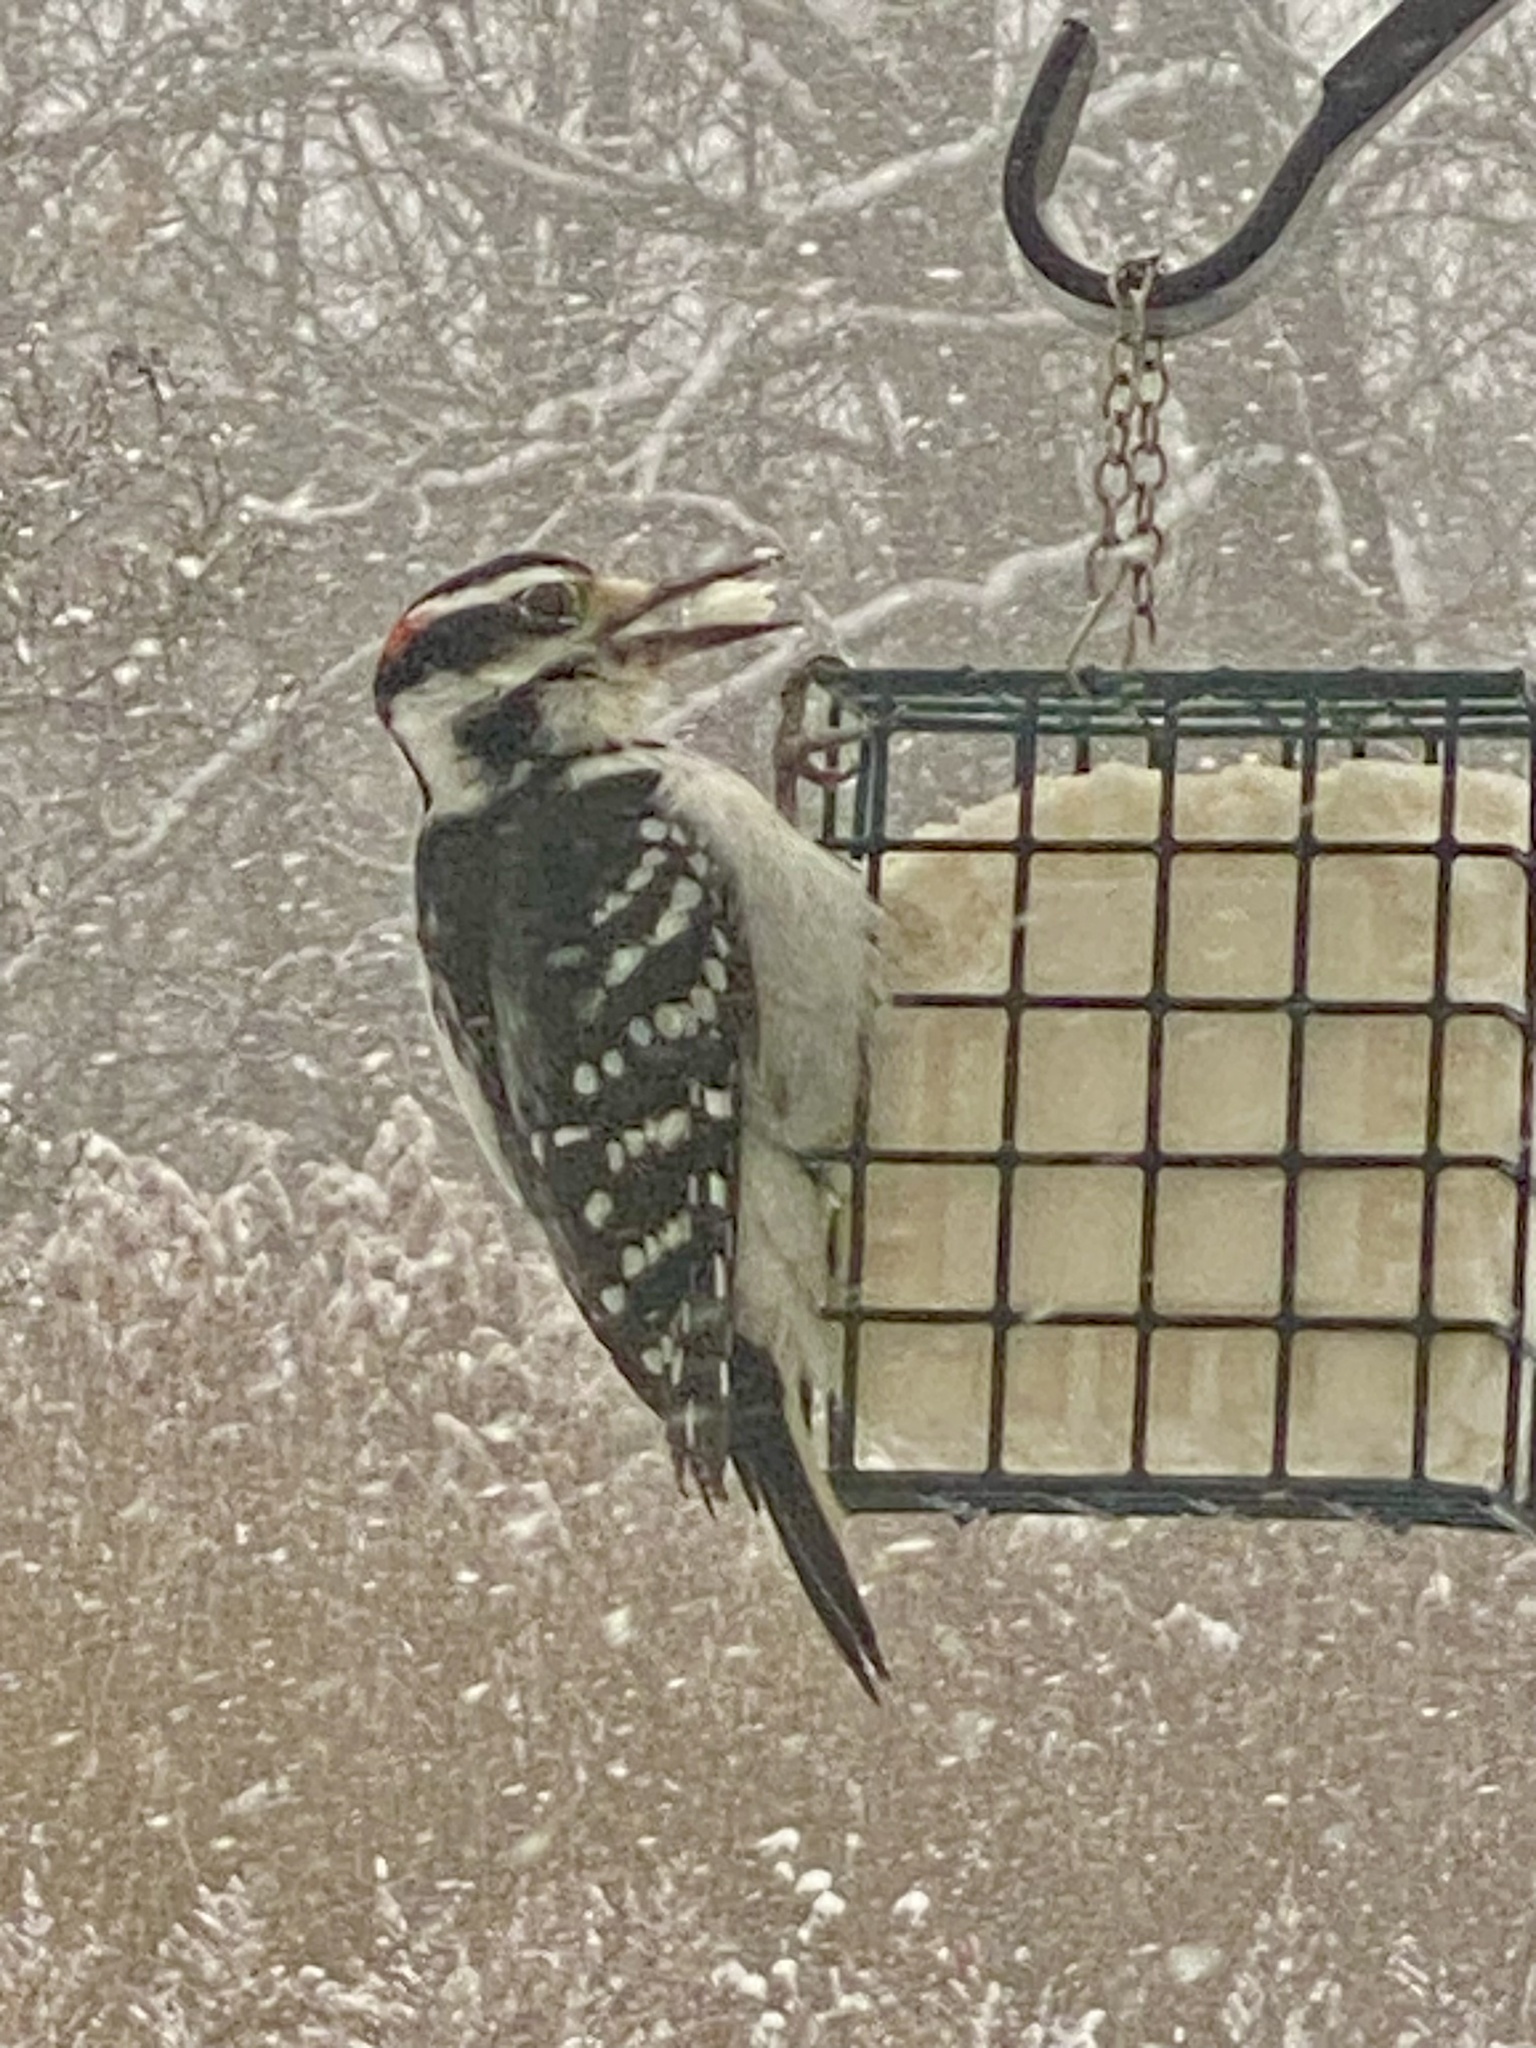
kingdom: Animalia
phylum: Chordata
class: Aves
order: Piciformes
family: Picidae
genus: Leuconotopicus
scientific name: Leuconotopicus villosus
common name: Hairy woodpecker
